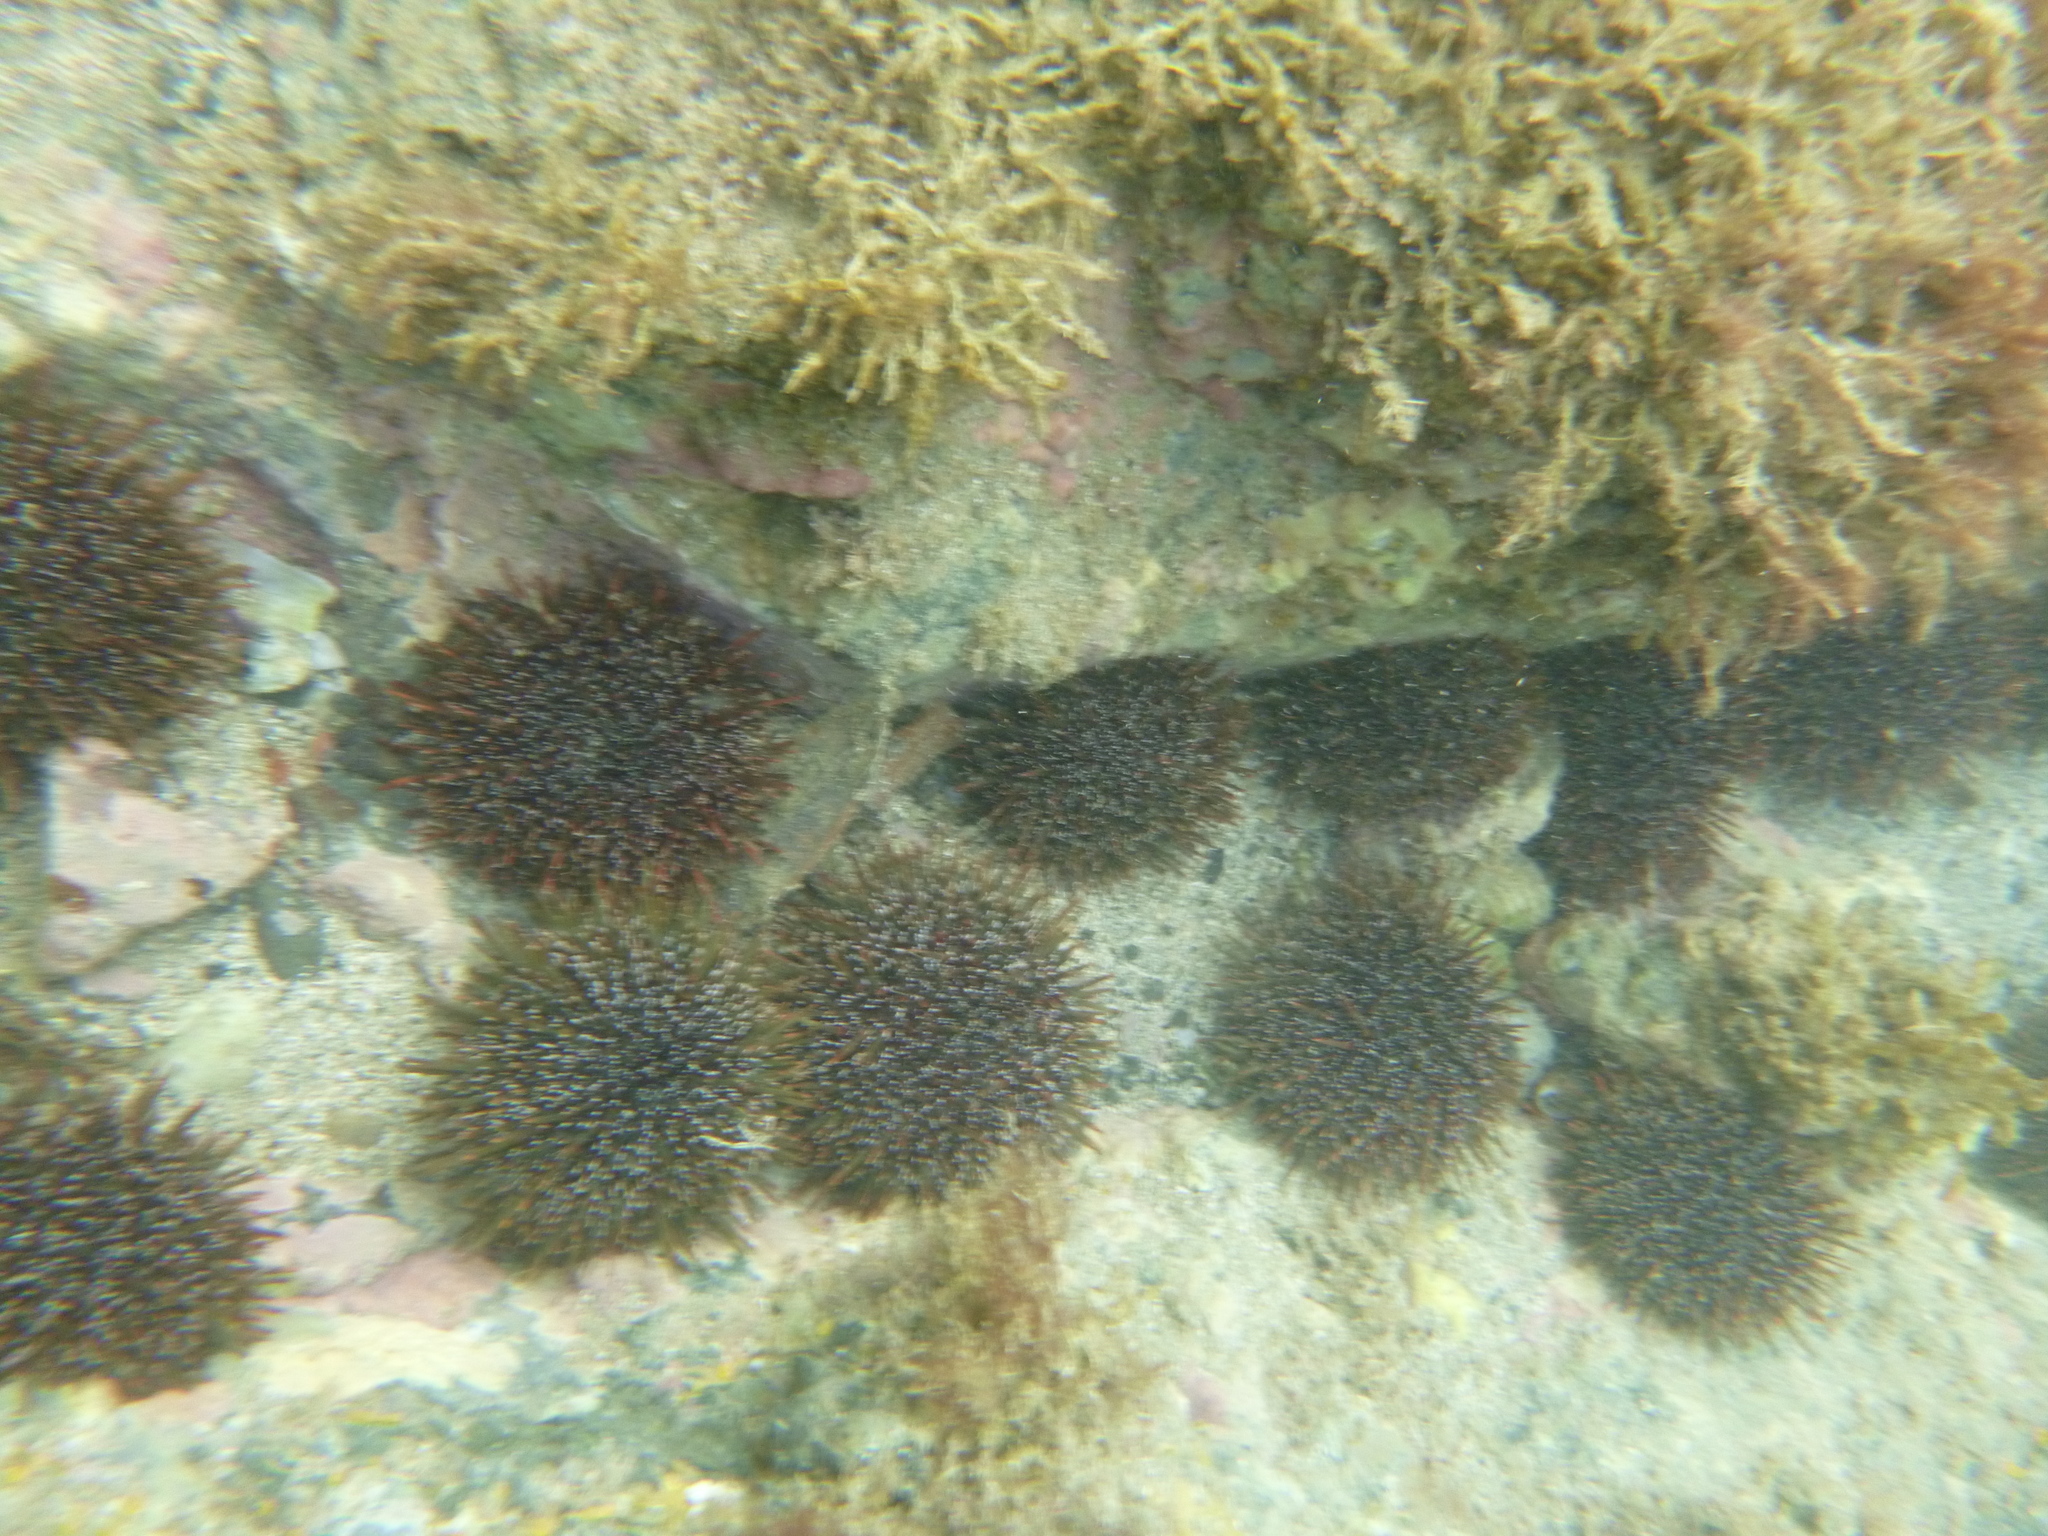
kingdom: Animalia
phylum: Echinodermata
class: Echinoidea
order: Camarodonta
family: Echinometridae
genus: Evechinus
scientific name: Evechinus chloroticus
